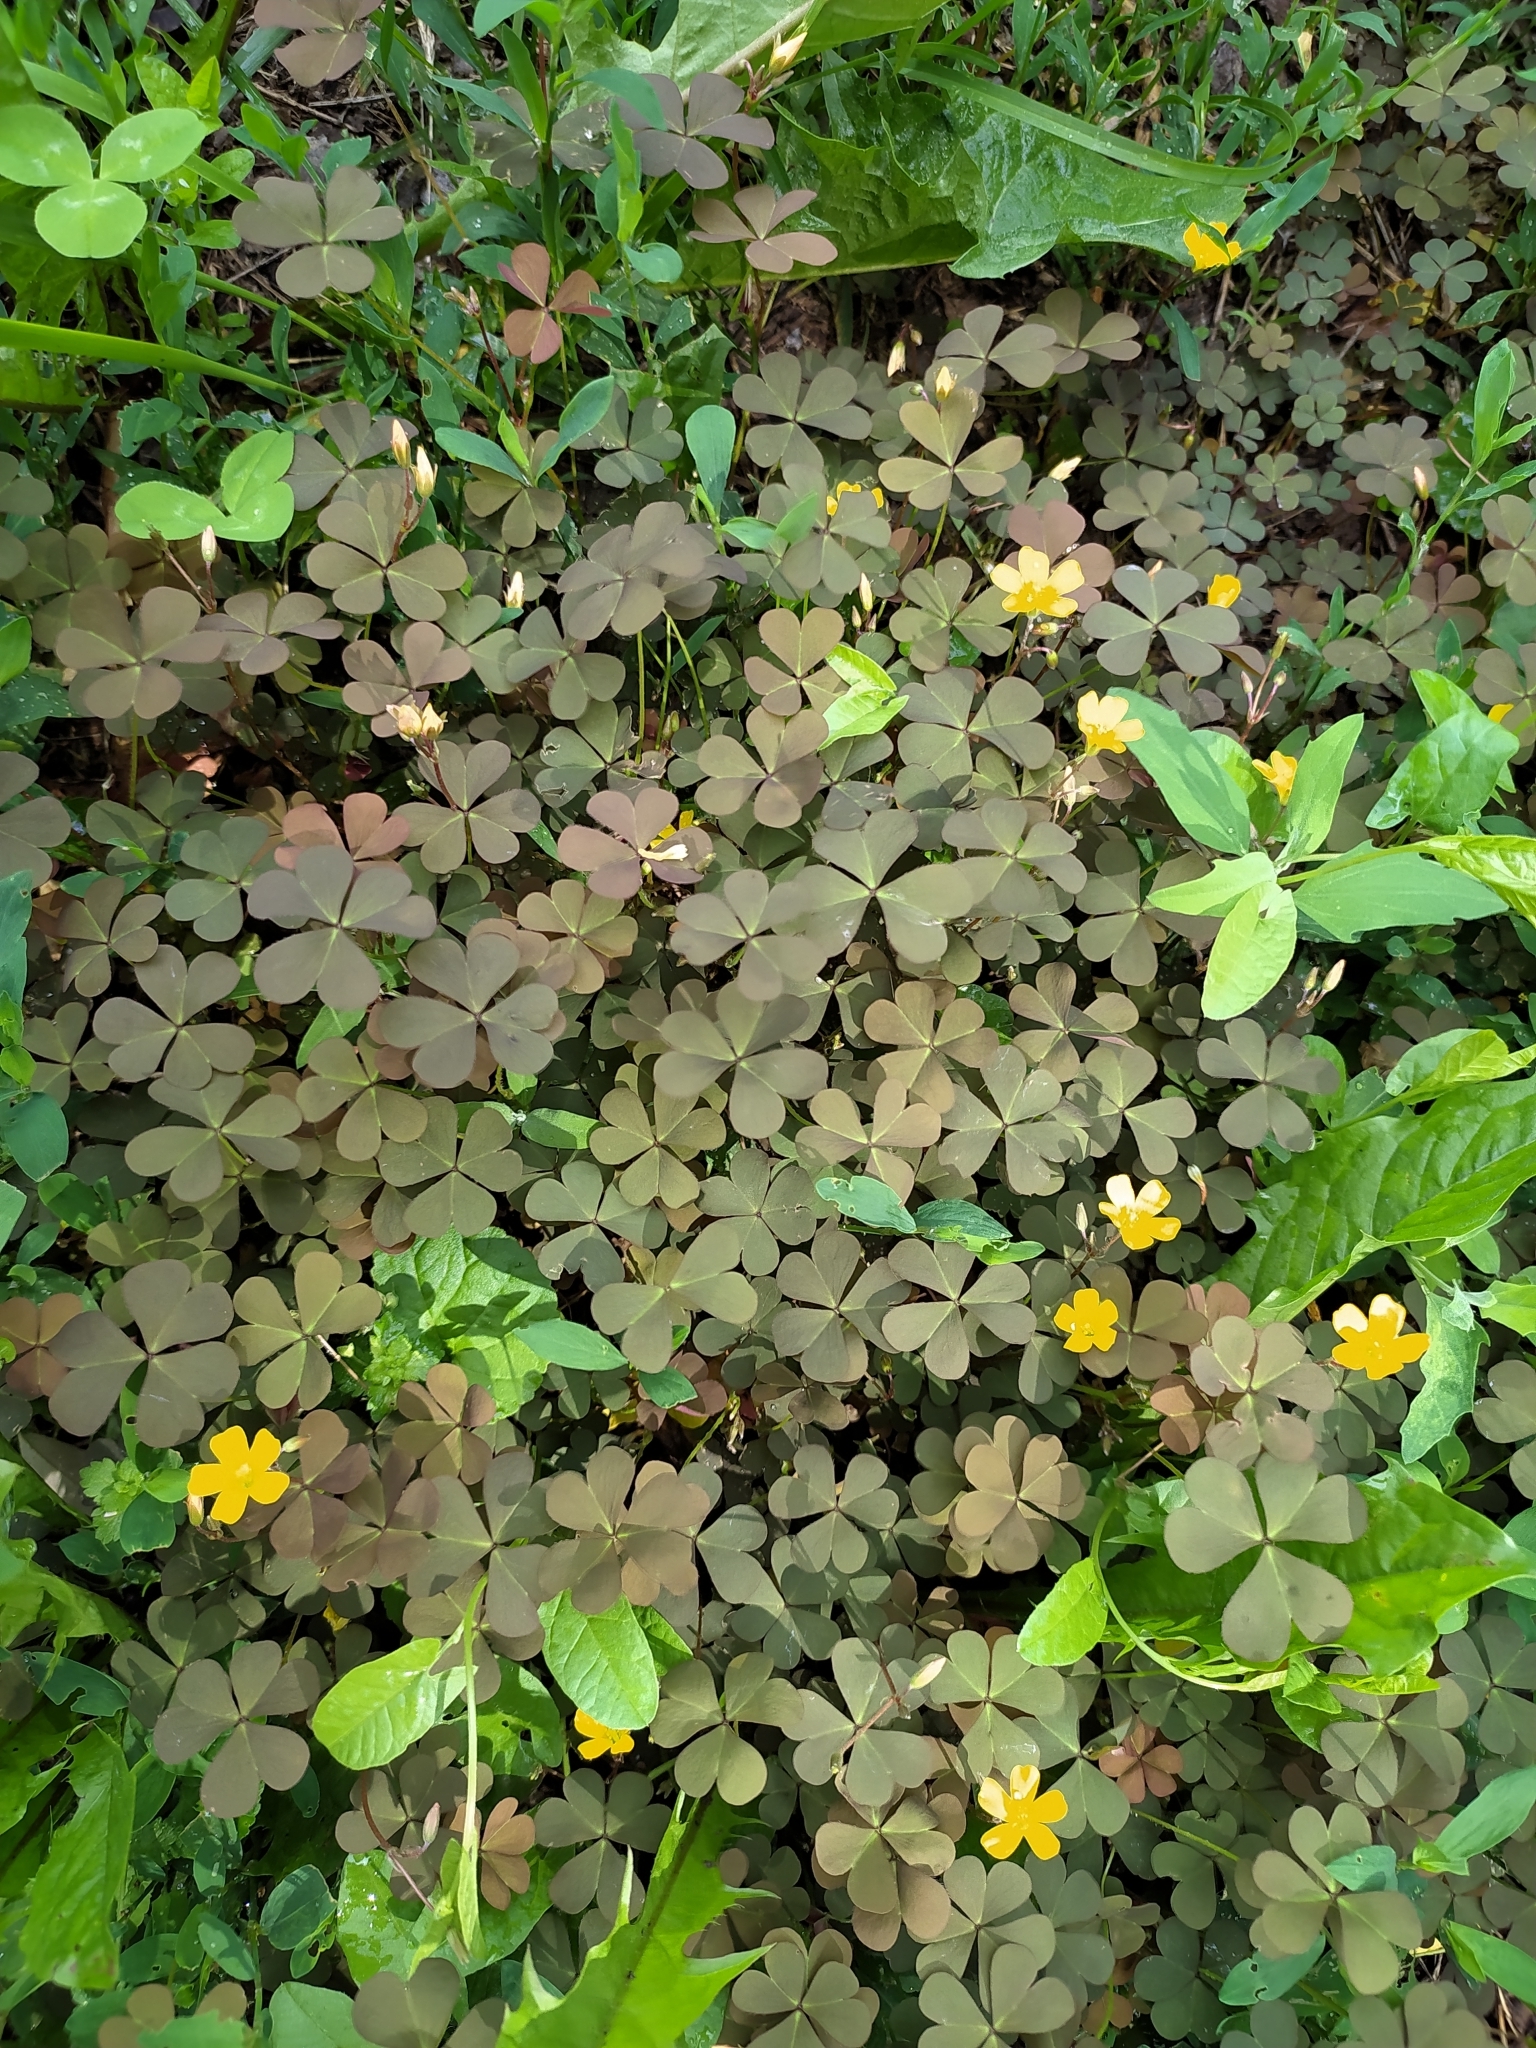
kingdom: Plantae
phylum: Tracheophyta
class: Magnoliopsida
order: Oxalidales
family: Oxalidaceae
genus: Oxalis
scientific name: Oxalis corniculata
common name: Procumbent yellow-sorrel
